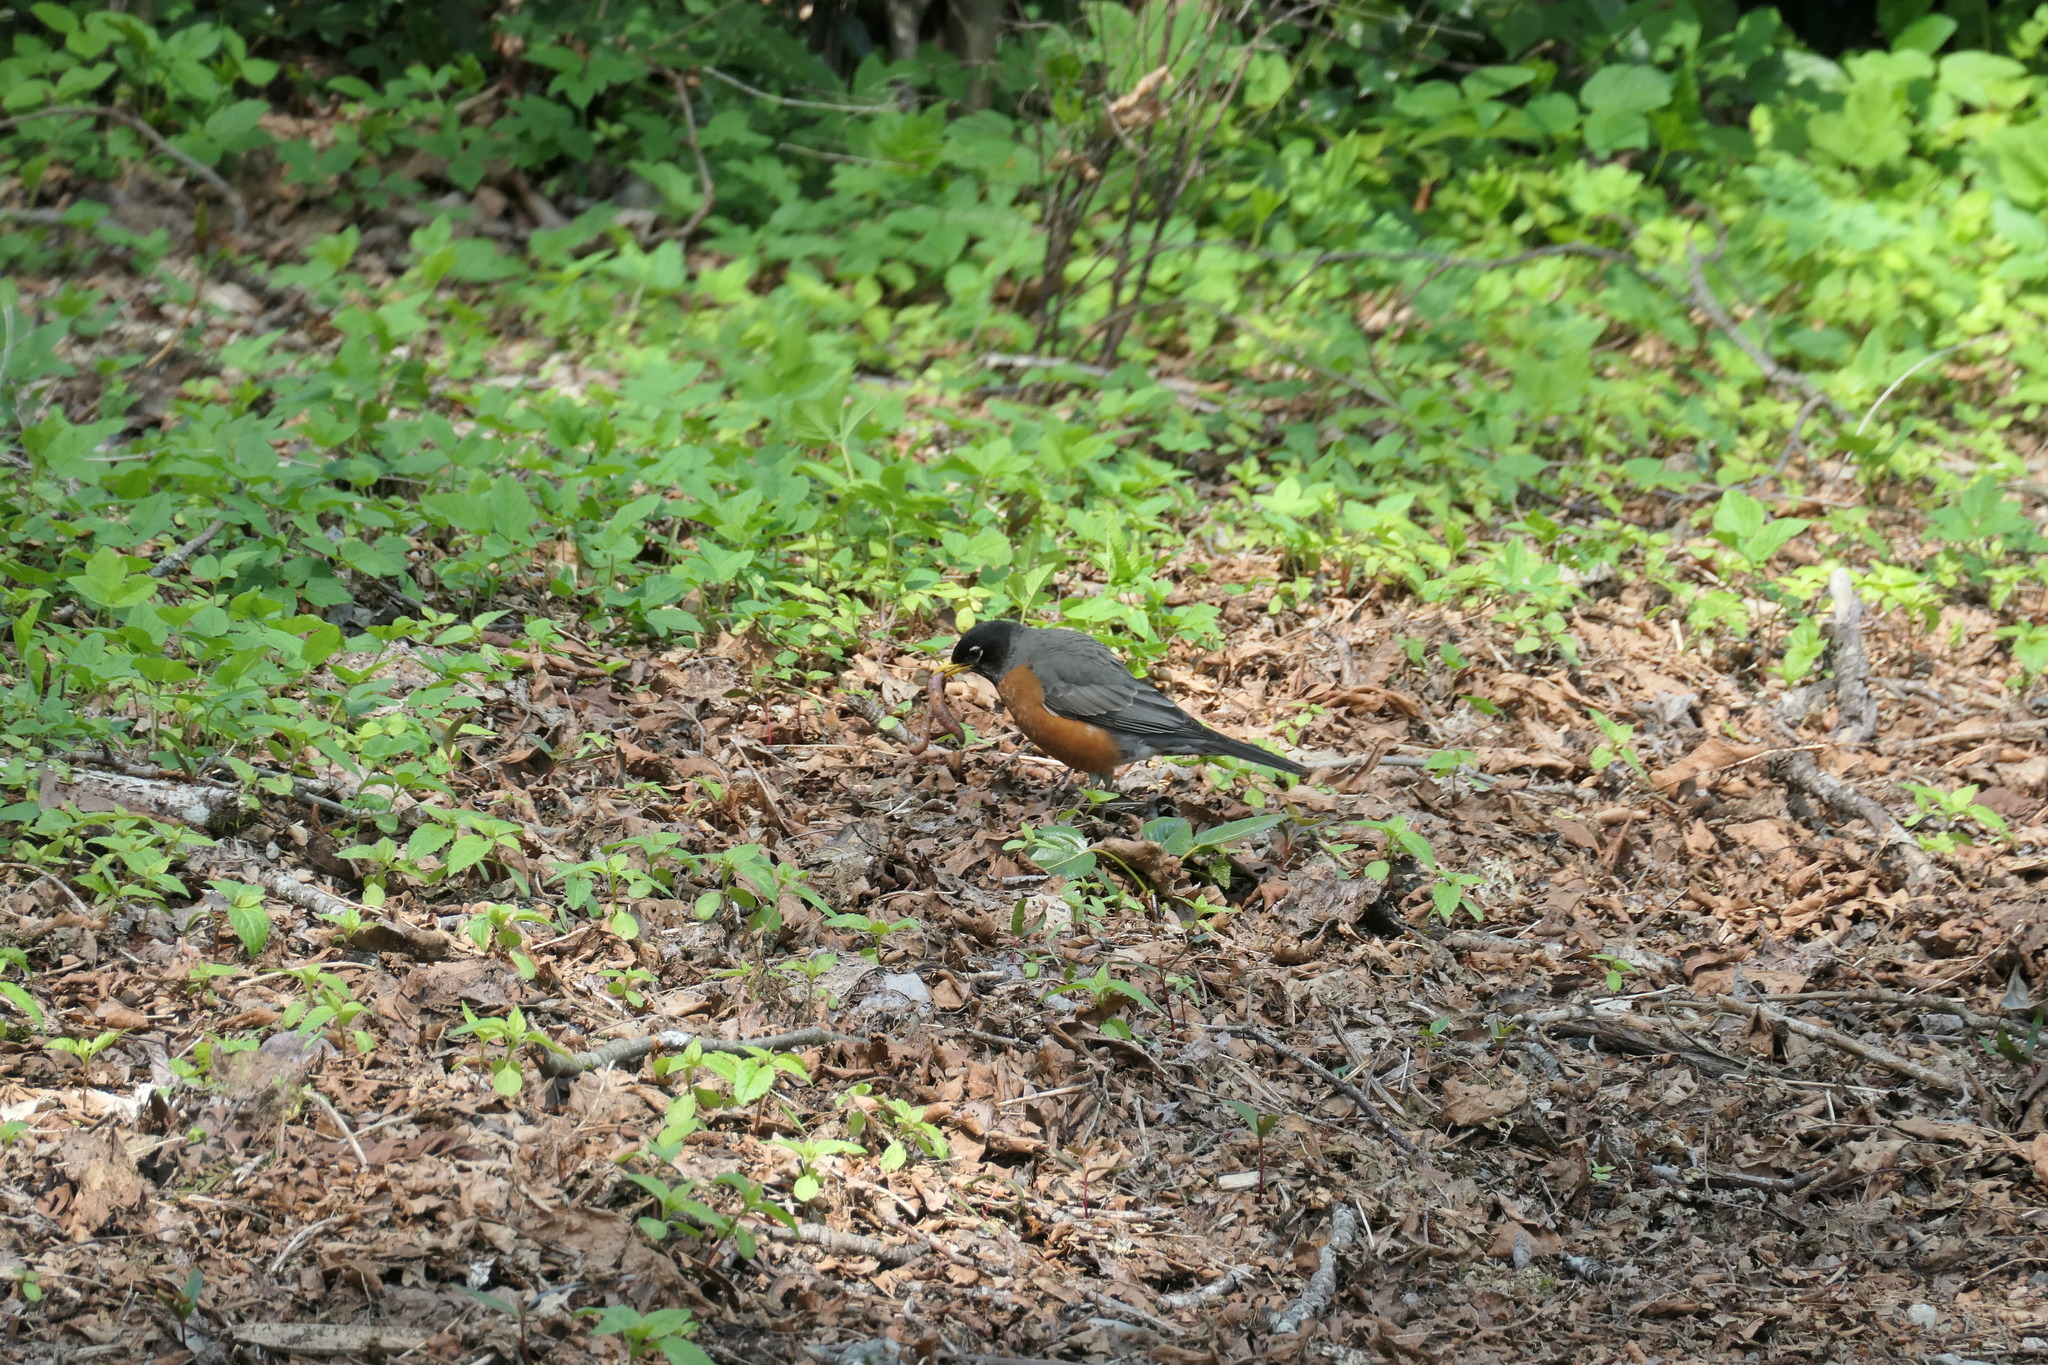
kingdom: Animalia
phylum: Chordata
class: Aves
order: Passeriformes
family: Turdidae
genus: Turdus
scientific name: Turdus migratorius
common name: American robin
